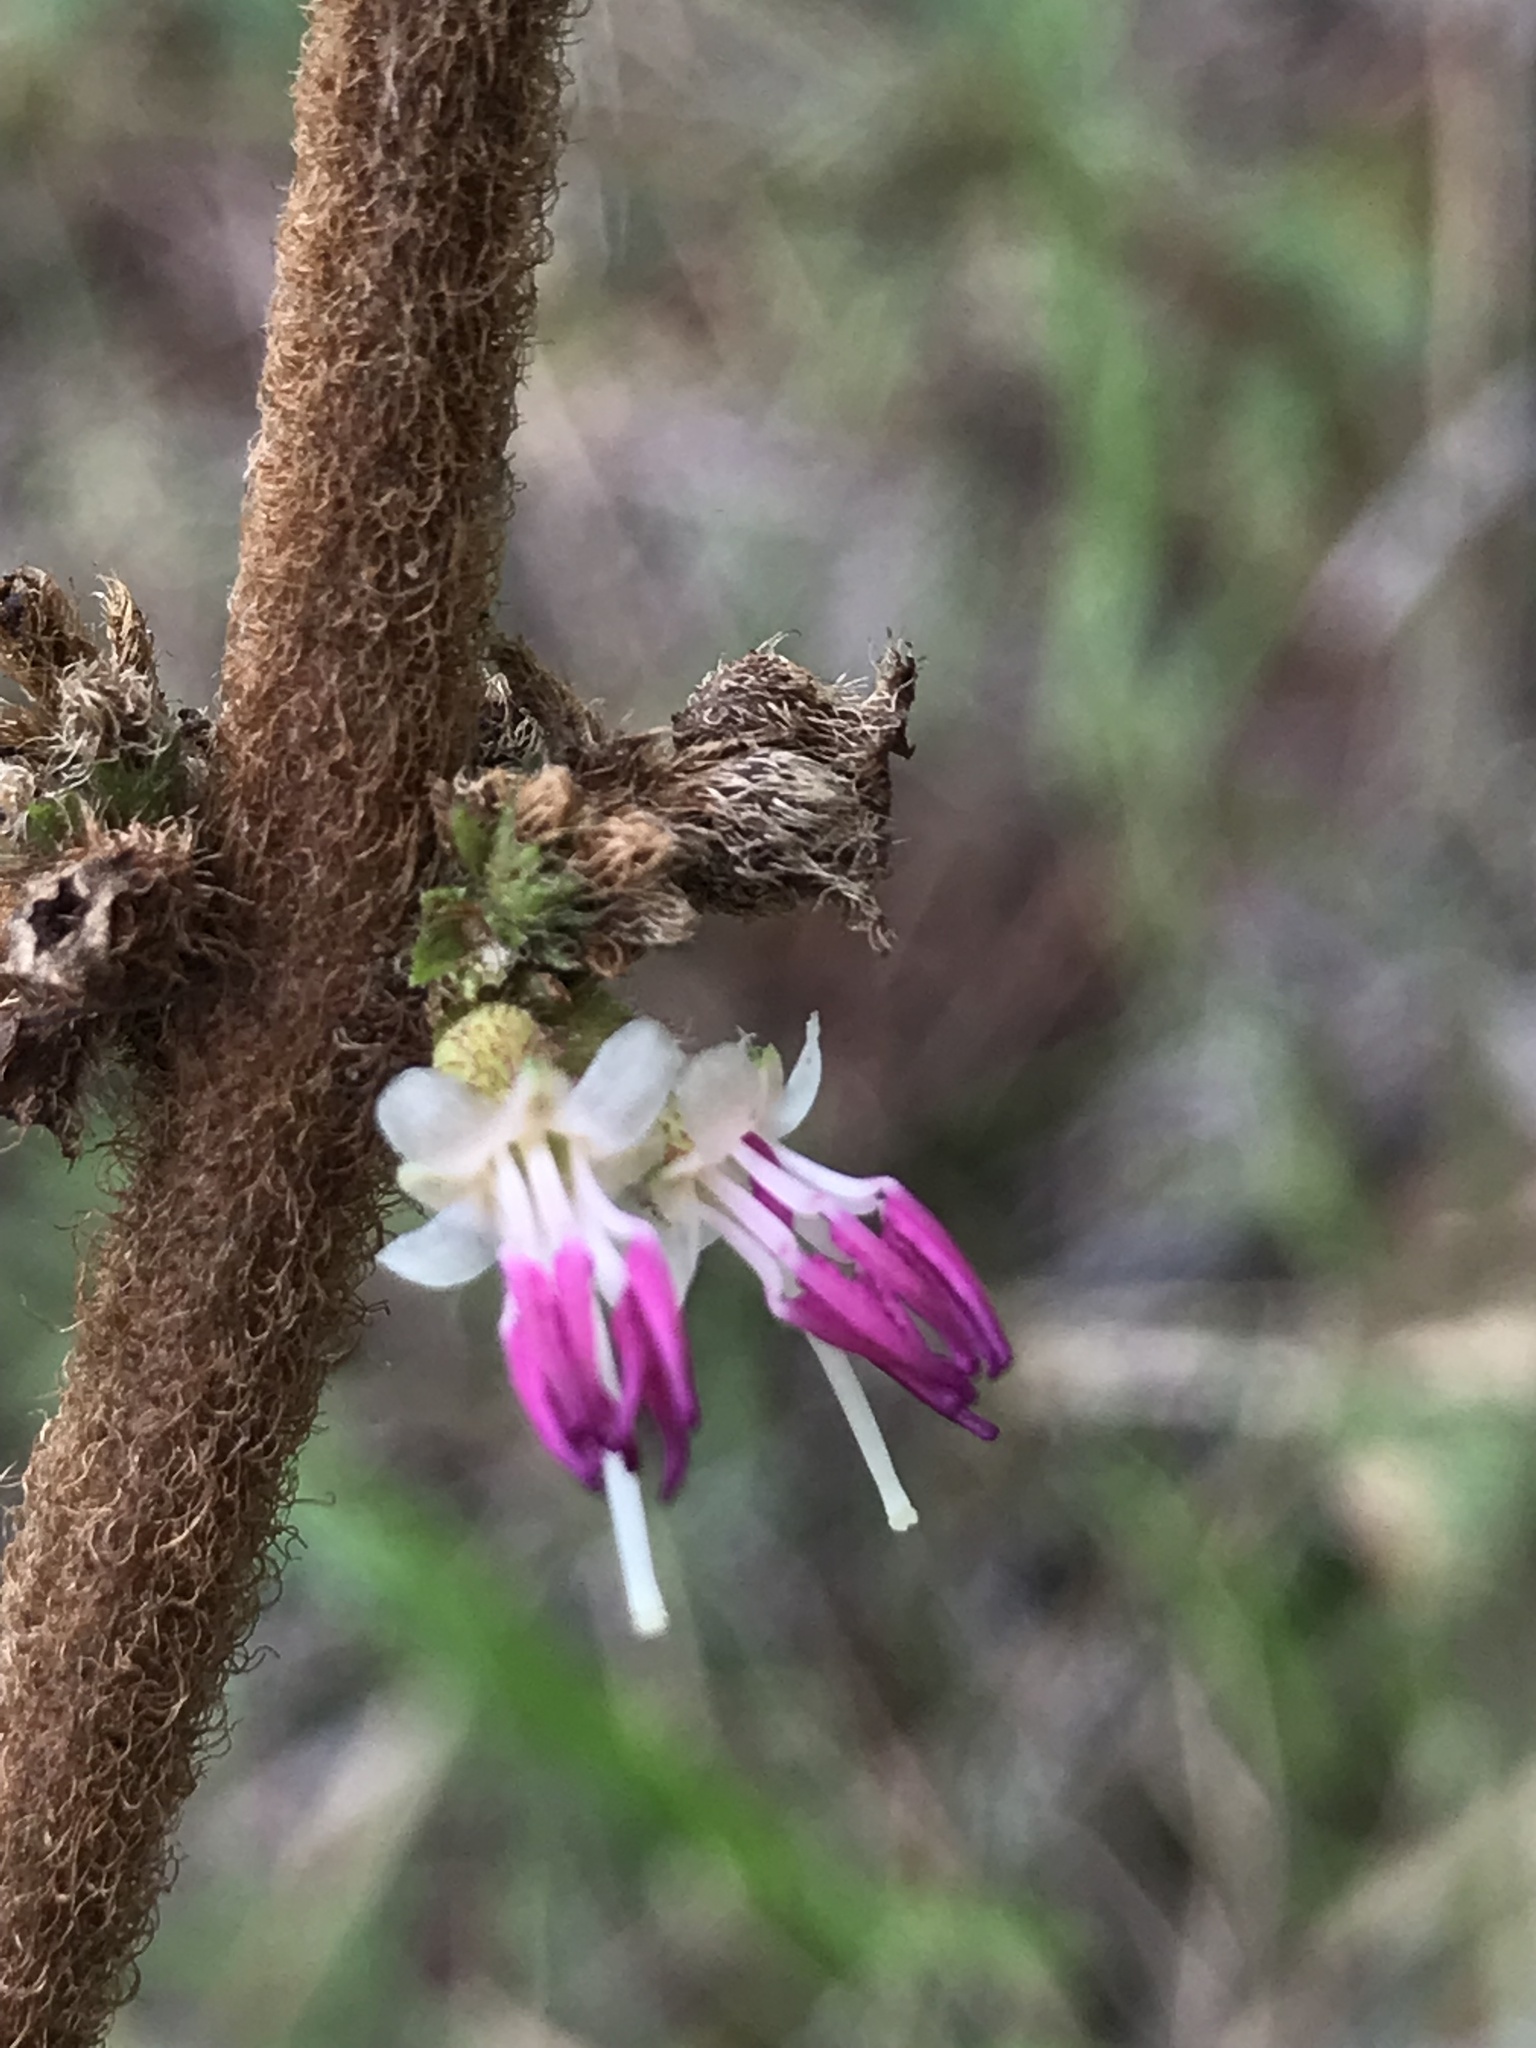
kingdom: Plantae
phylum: Tracheophyta
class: Magnoliopsida
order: Myrtales
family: Melastomataceae
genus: Miconia
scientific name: Miconia rubra
